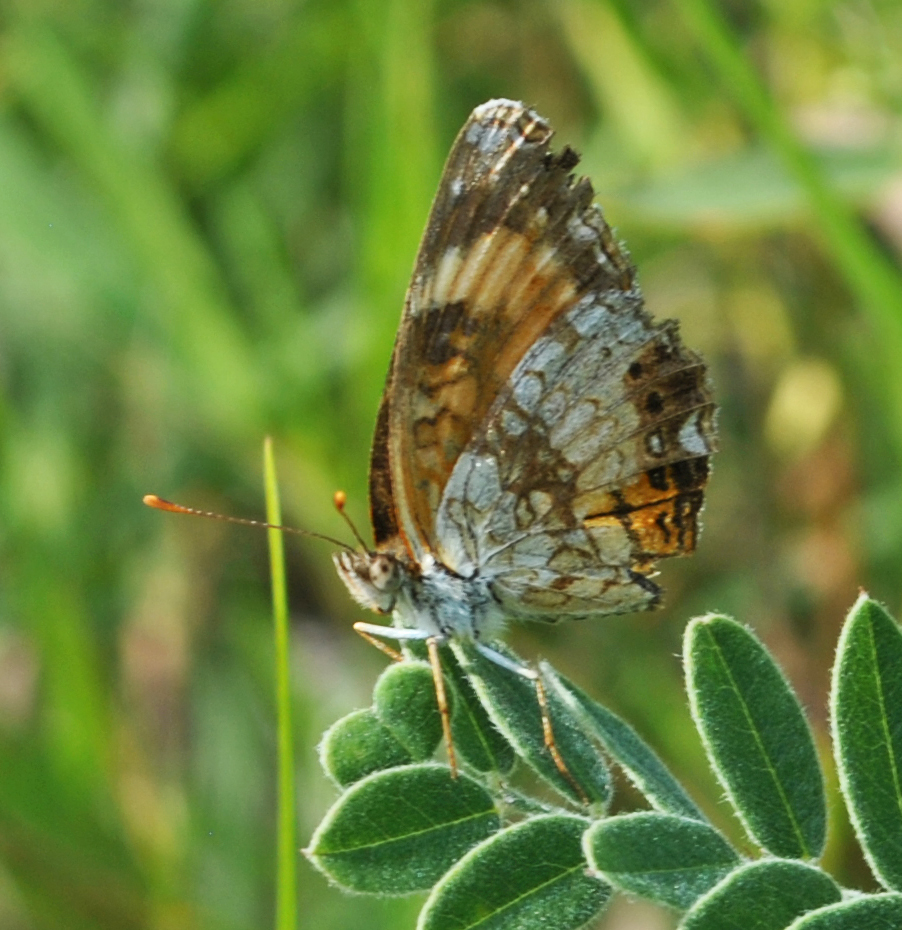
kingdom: Animalia
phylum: Arthropoda
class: Insecta
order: Lepidoptera
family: Nymphalidae
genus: Chlosyne
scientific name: Chlosyne nycteis
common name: Silvery checkerspot
